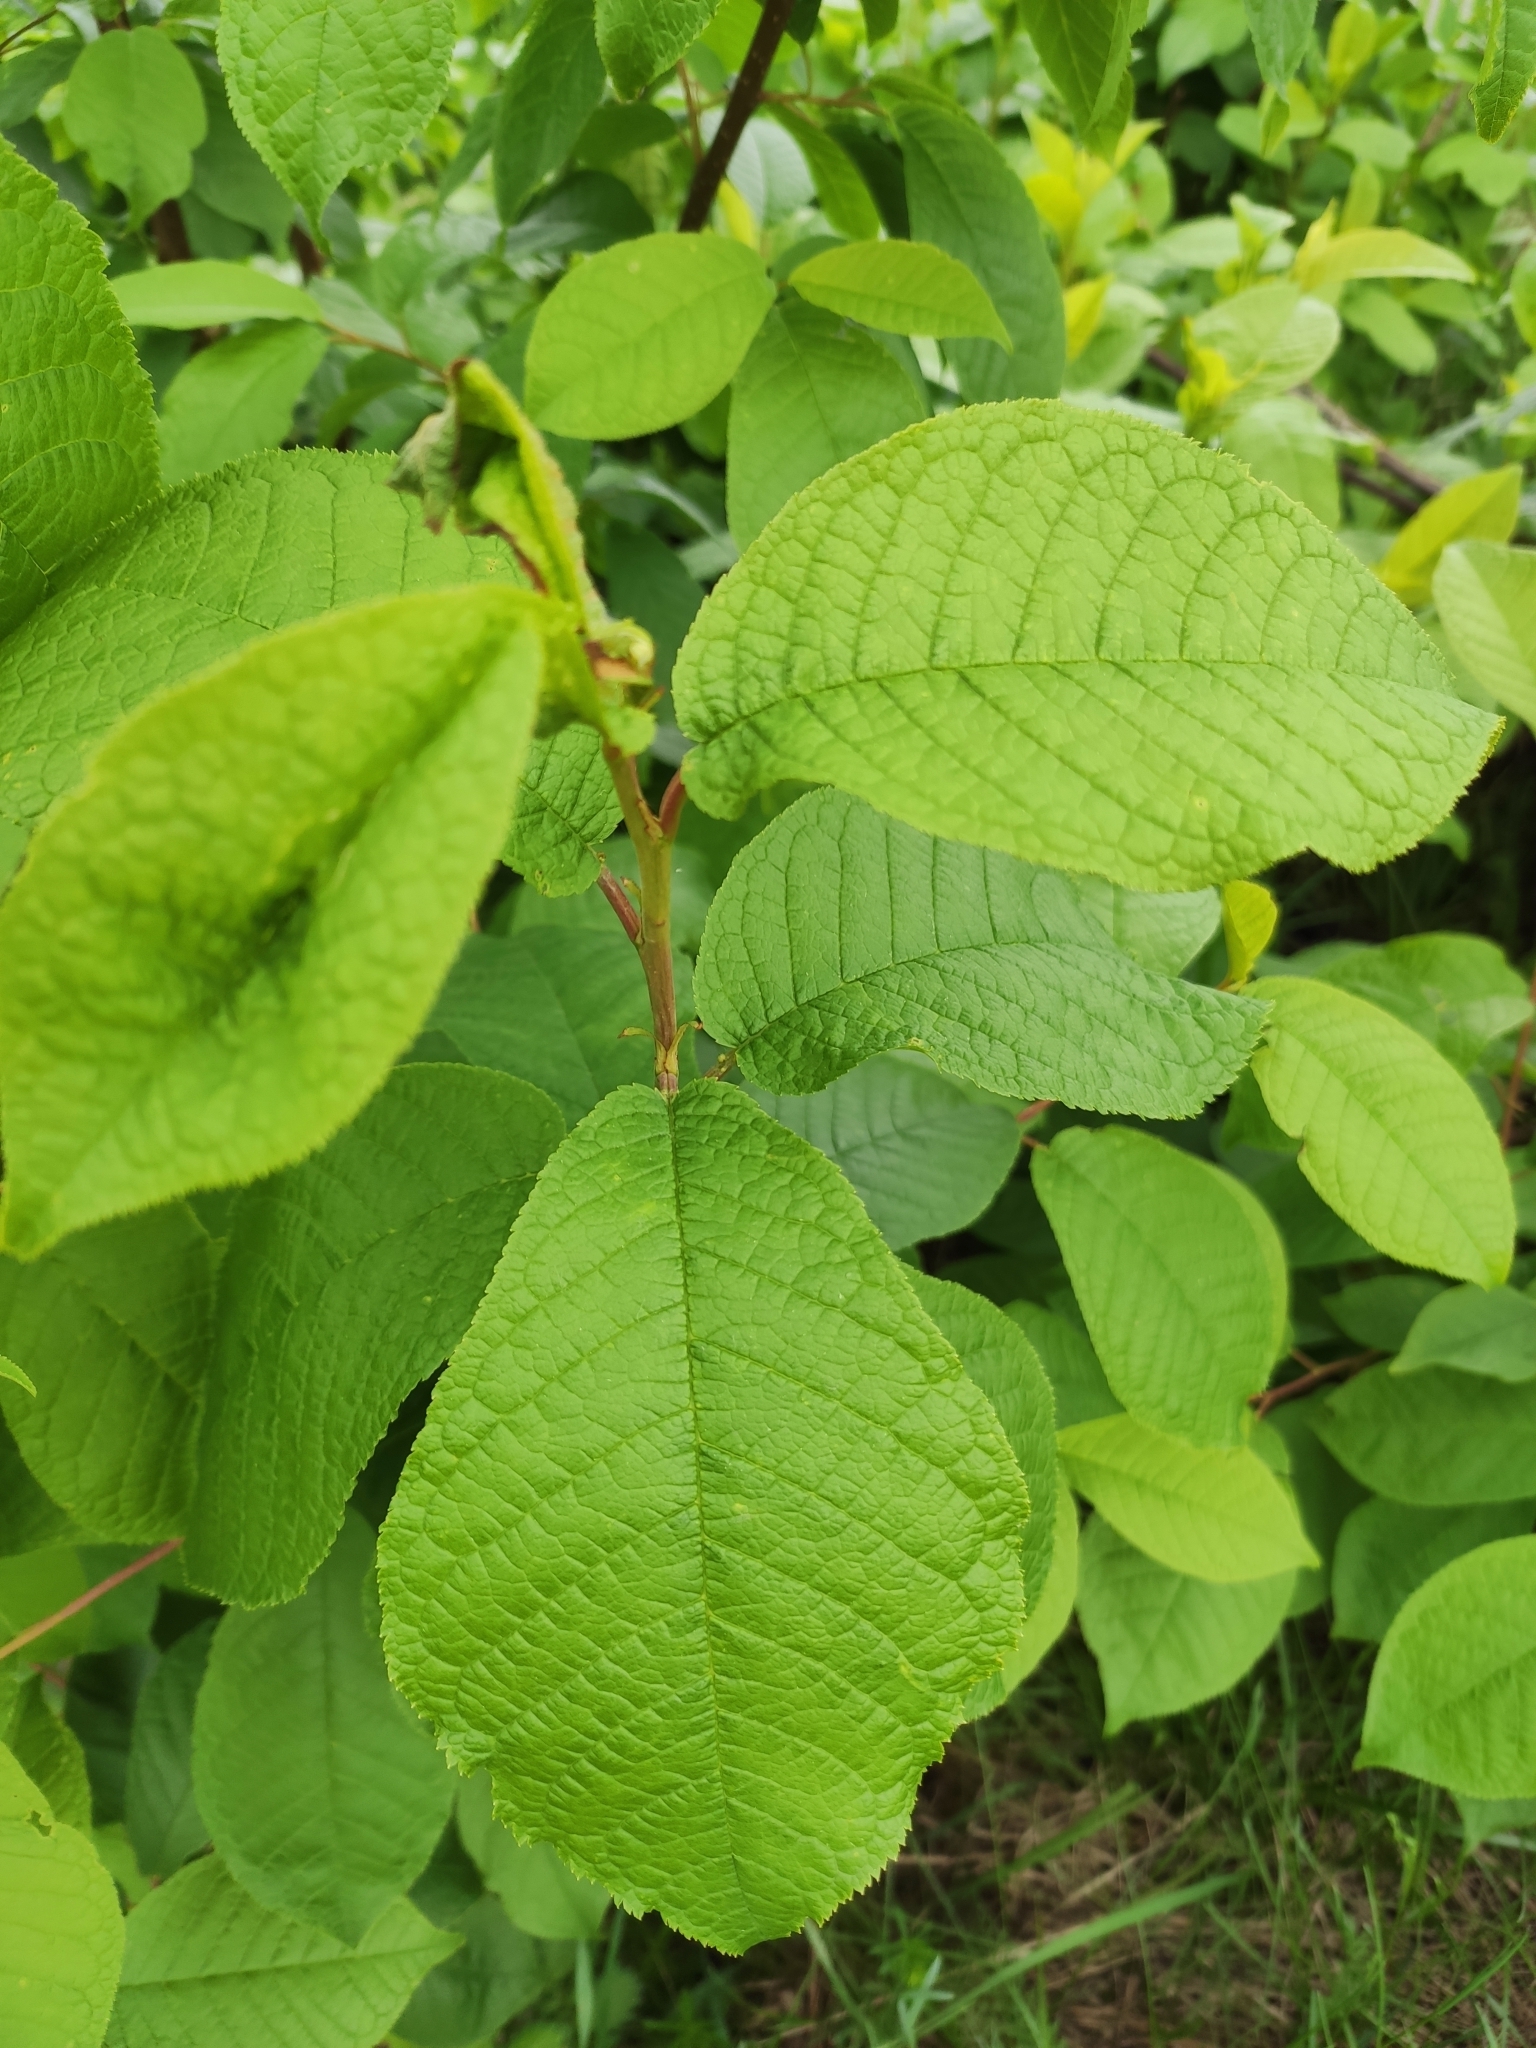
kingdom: Plantae
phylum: Tracheophyta
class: Magnoliopsida
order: Rosales
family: Rosaceae
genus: Prunus
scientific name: Prunus padus
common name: Bird cherry
